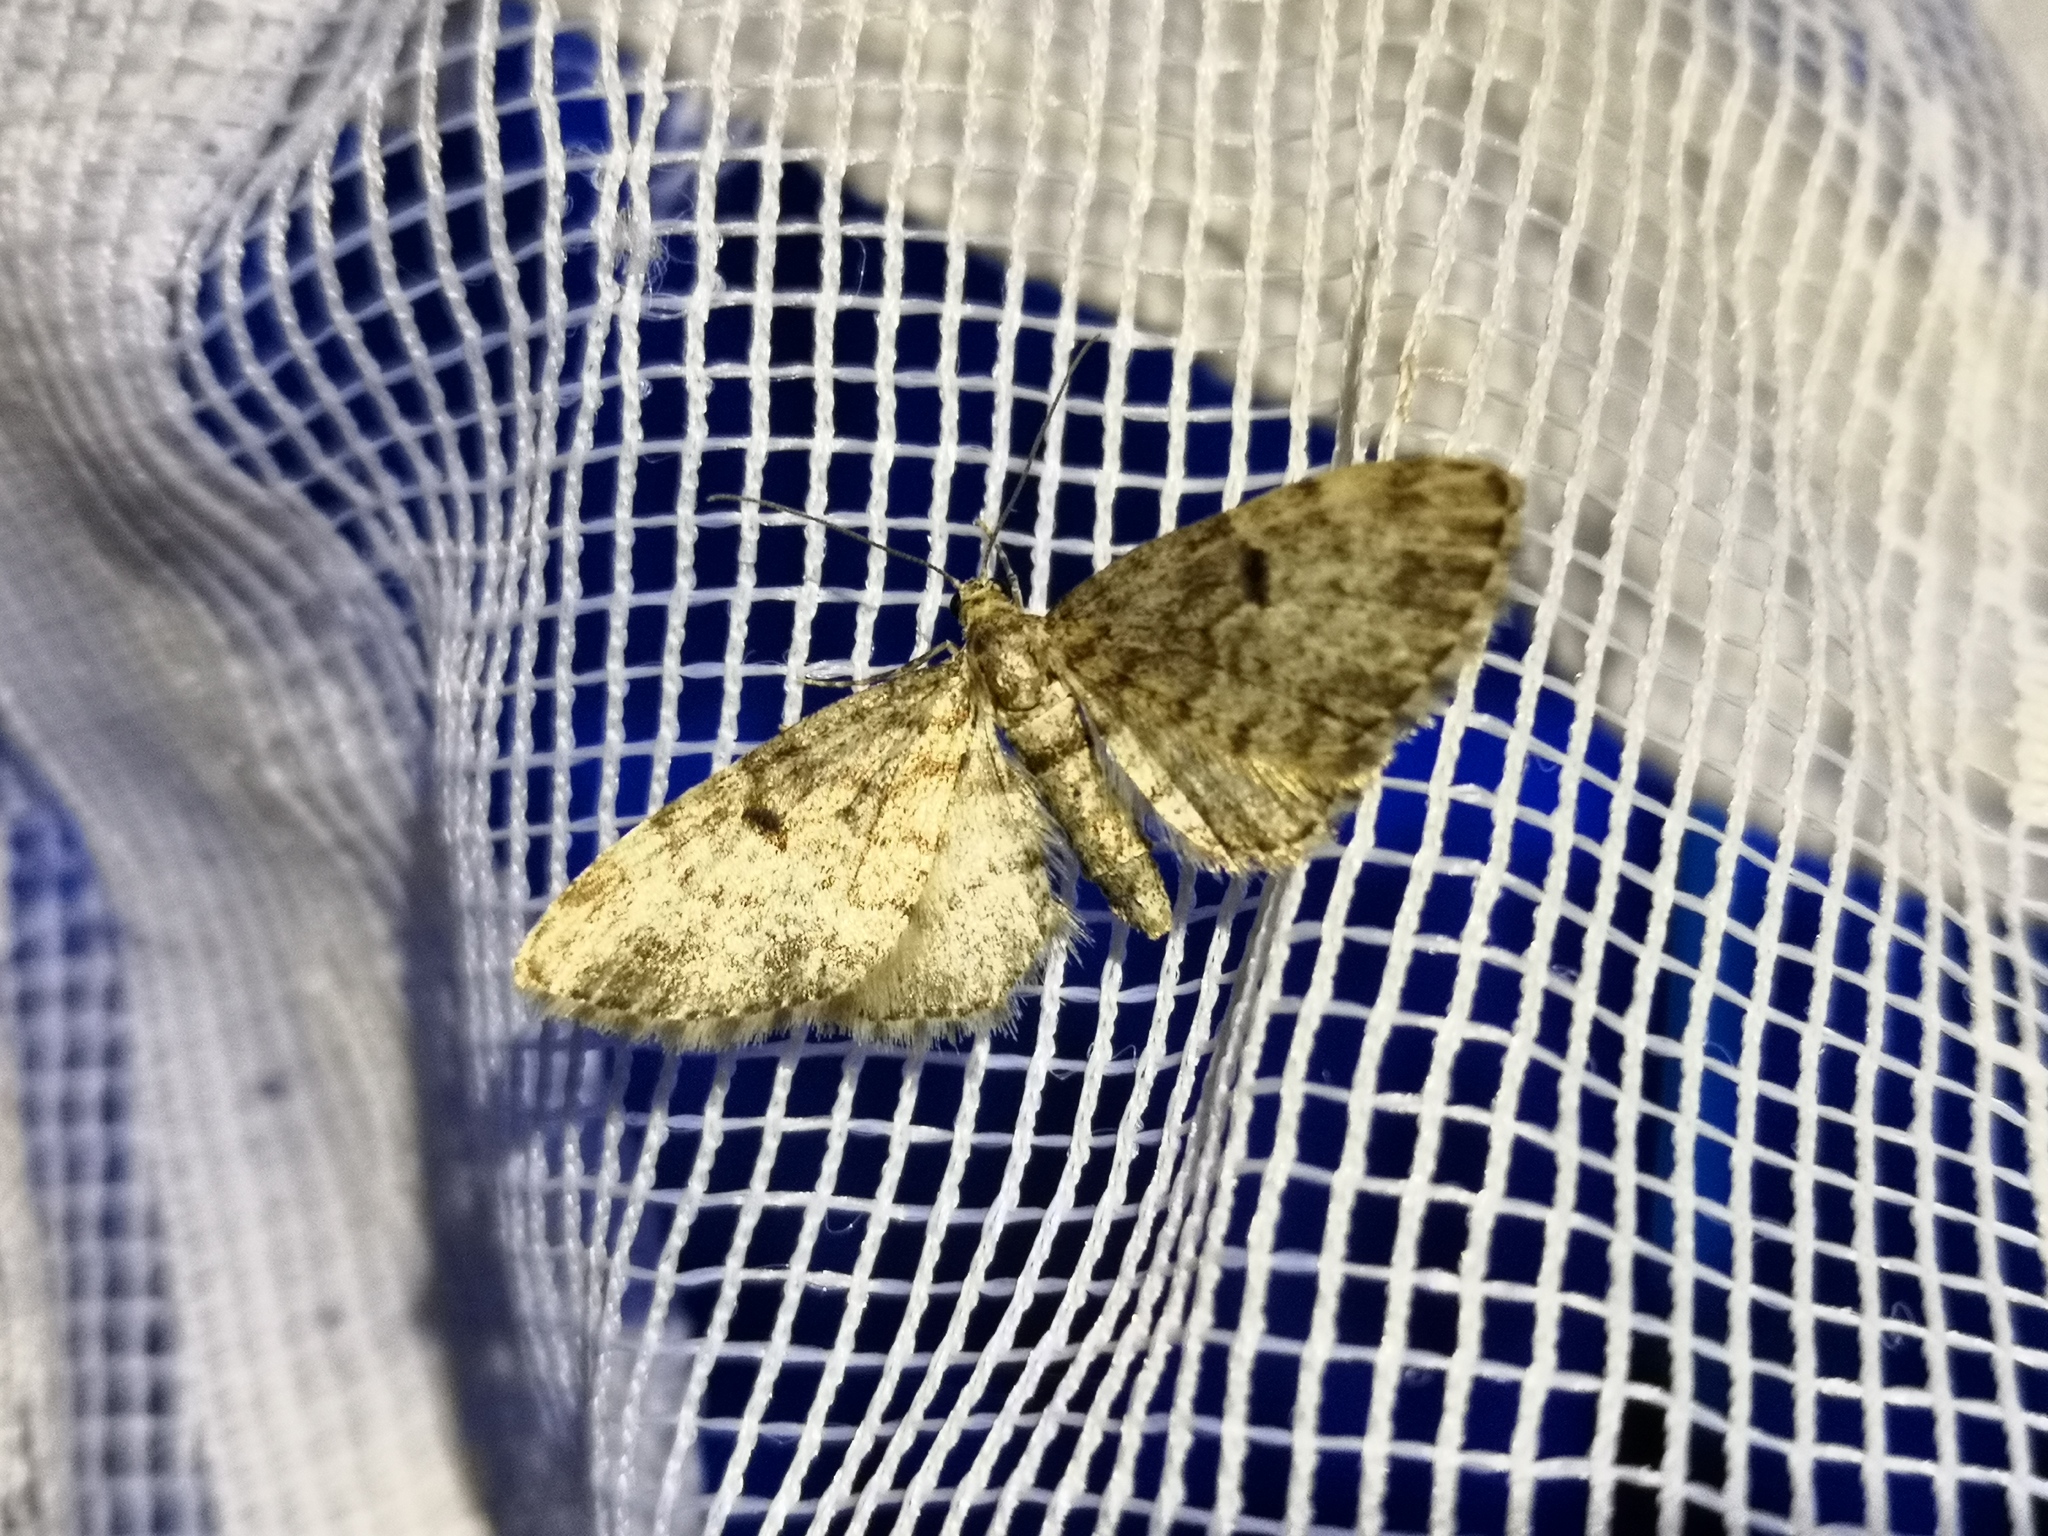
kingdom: Animalia
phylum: Arthropoda
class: Insecta
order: Lepidoptera
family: Geometridae
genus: Eupithecia
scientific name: Eupithecia tantillaria
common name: Dwarf pug
